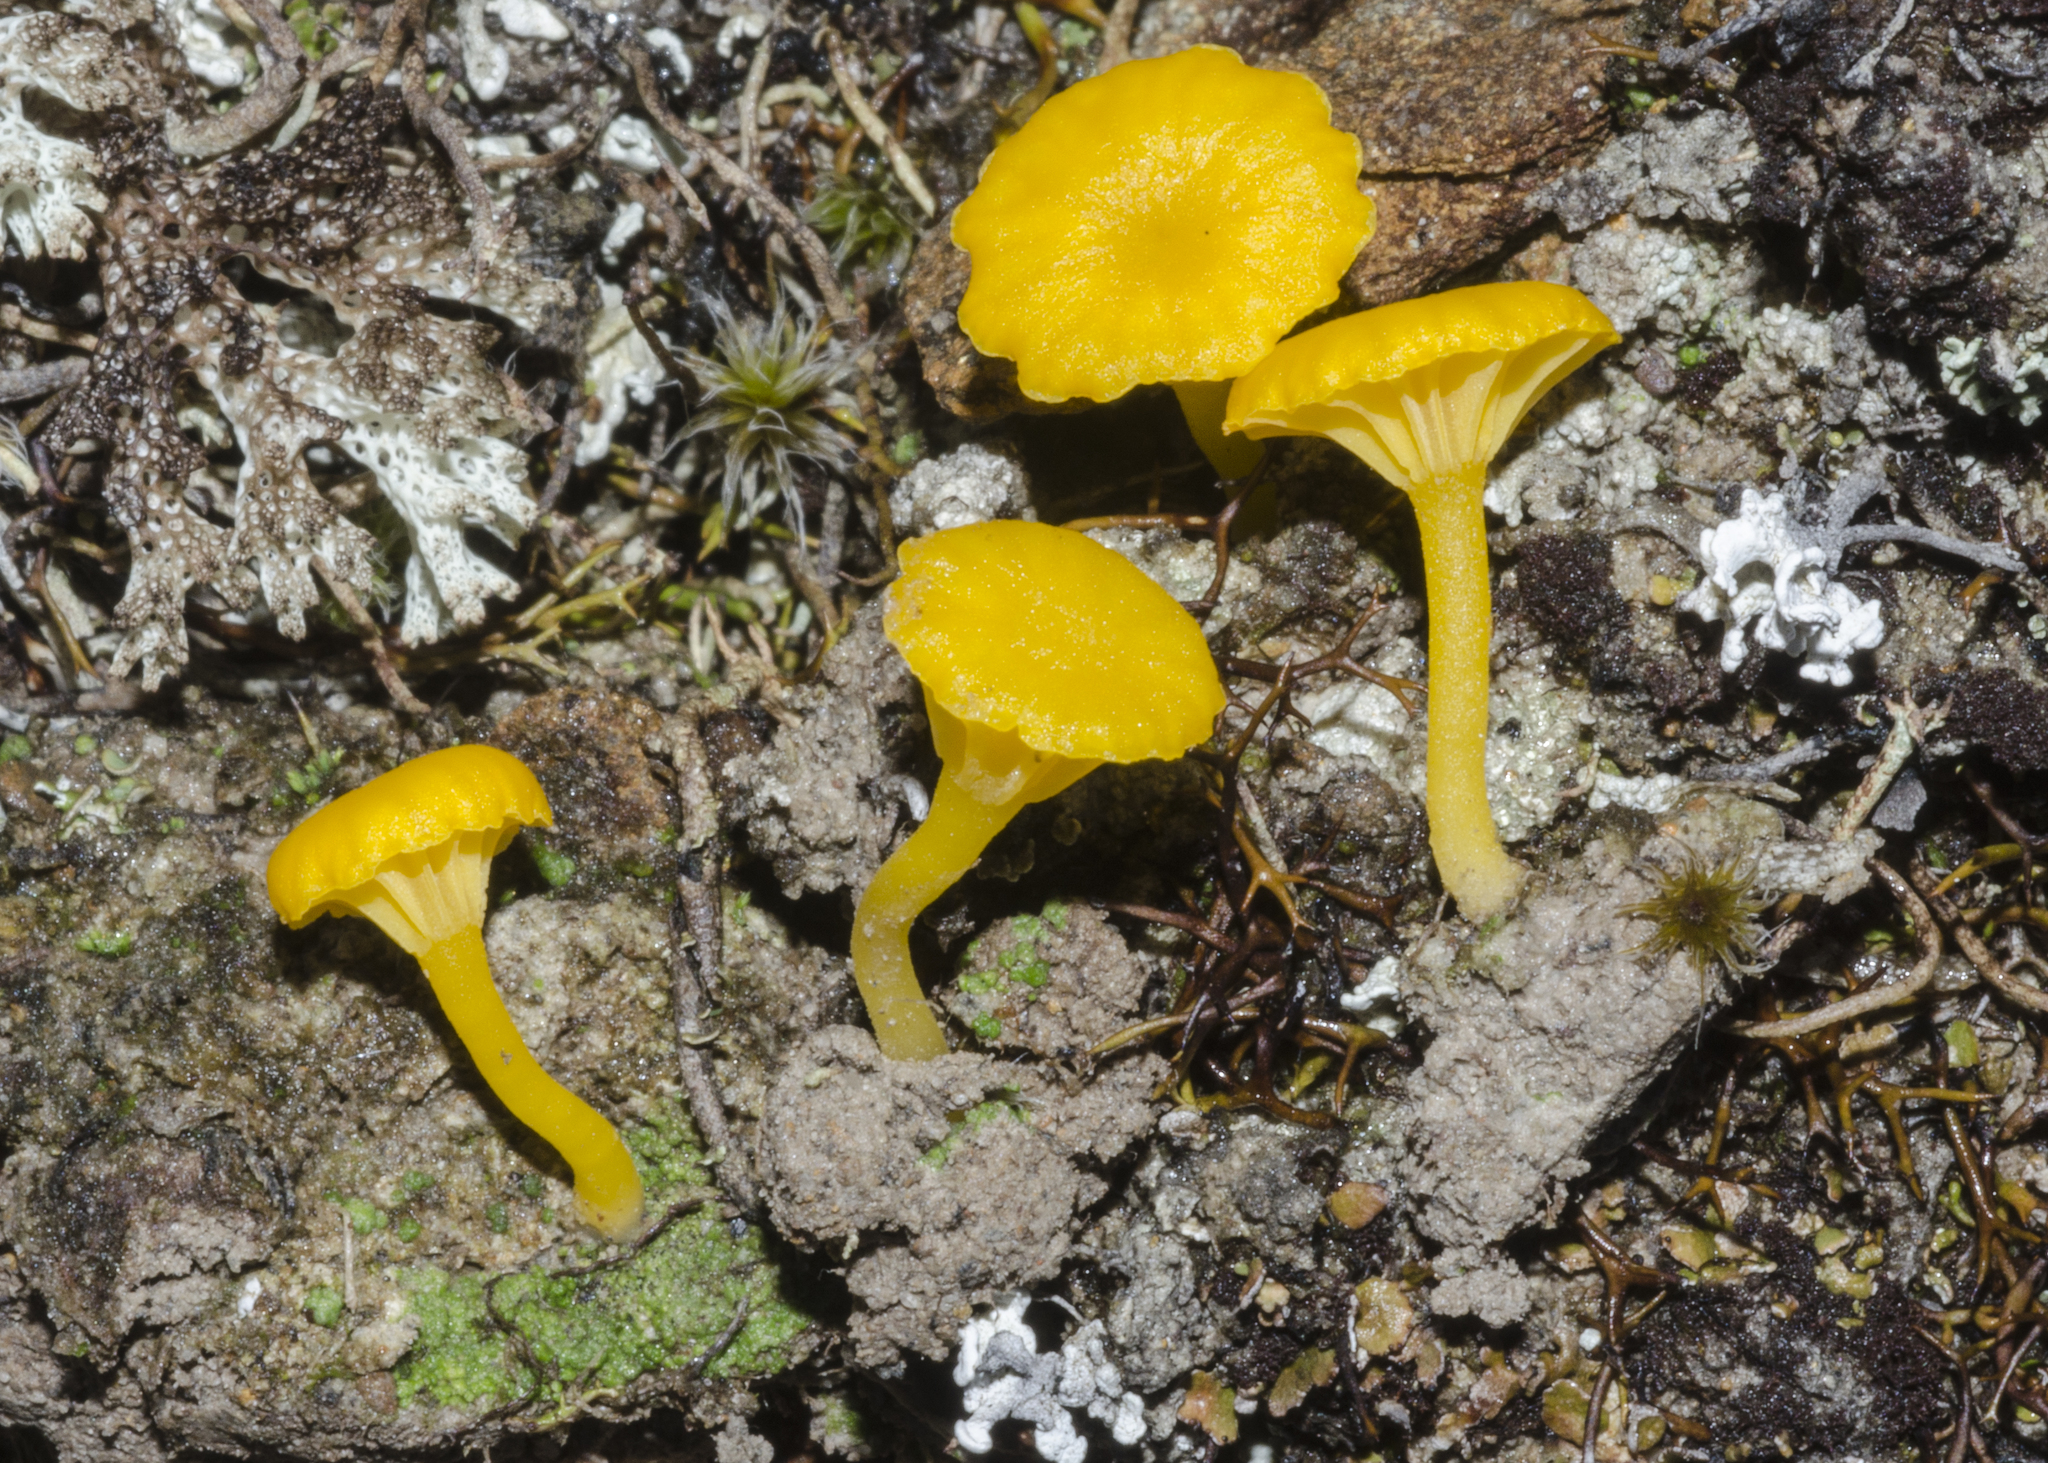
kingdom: Fungi
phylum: Basidiomycota
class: Agaricomycetes
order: Agaricales
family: Hygrophoraceae
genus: Lichenomphalia
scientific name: Lichenomphalia
